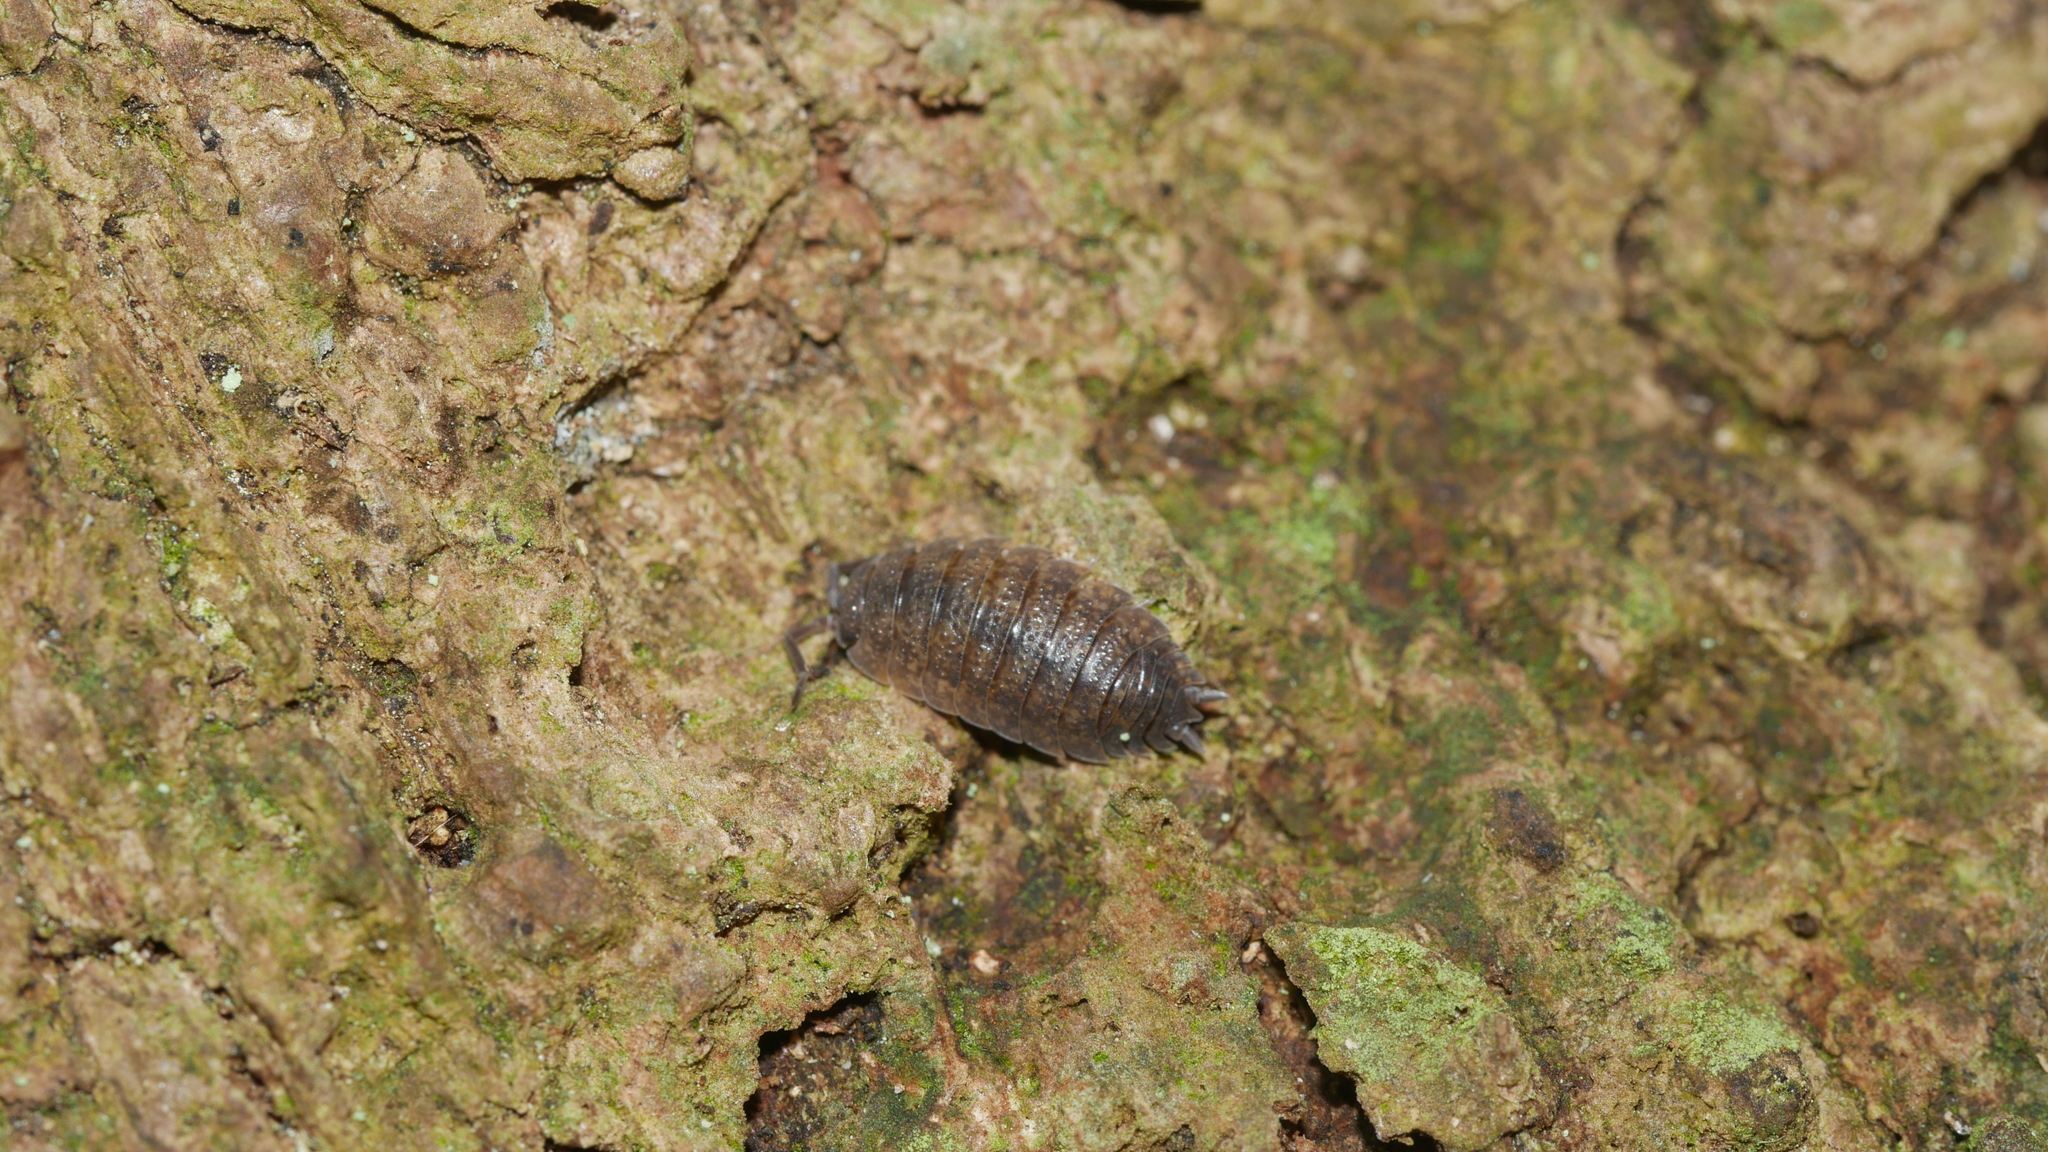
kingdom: Animalia
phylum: Arthropoda
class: Malacostraca
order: Isopoda
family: Porcellionidae
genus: Porcellio
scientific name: Porcellio scaber
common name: Common rough woodlouse
